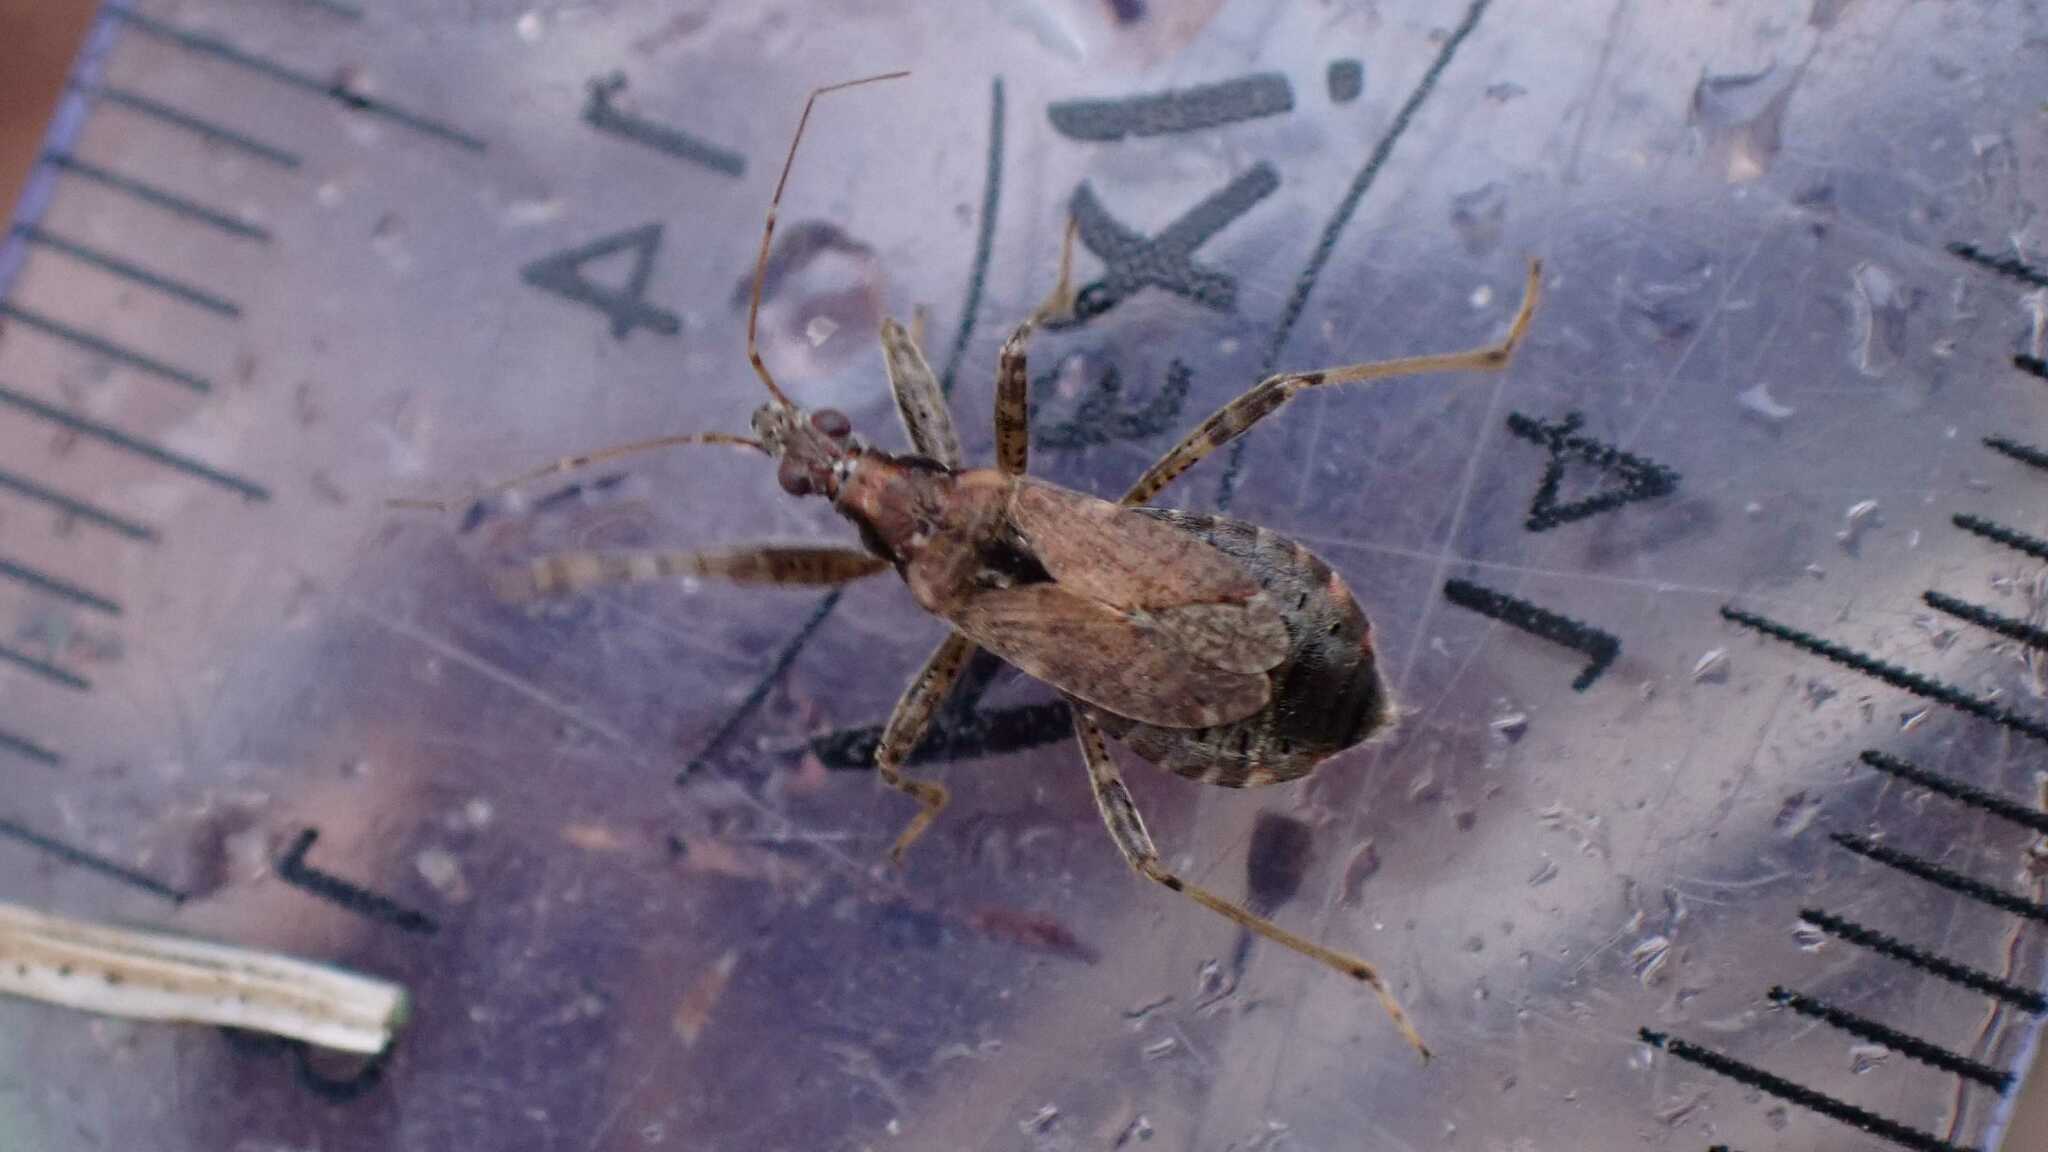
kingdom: Animalia
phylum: Arthropoda
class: Insecta
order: Hemiptera
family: Nabidae
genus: Himacerus
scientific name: Himacerus mirmicoides
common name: Ant damsel bug
